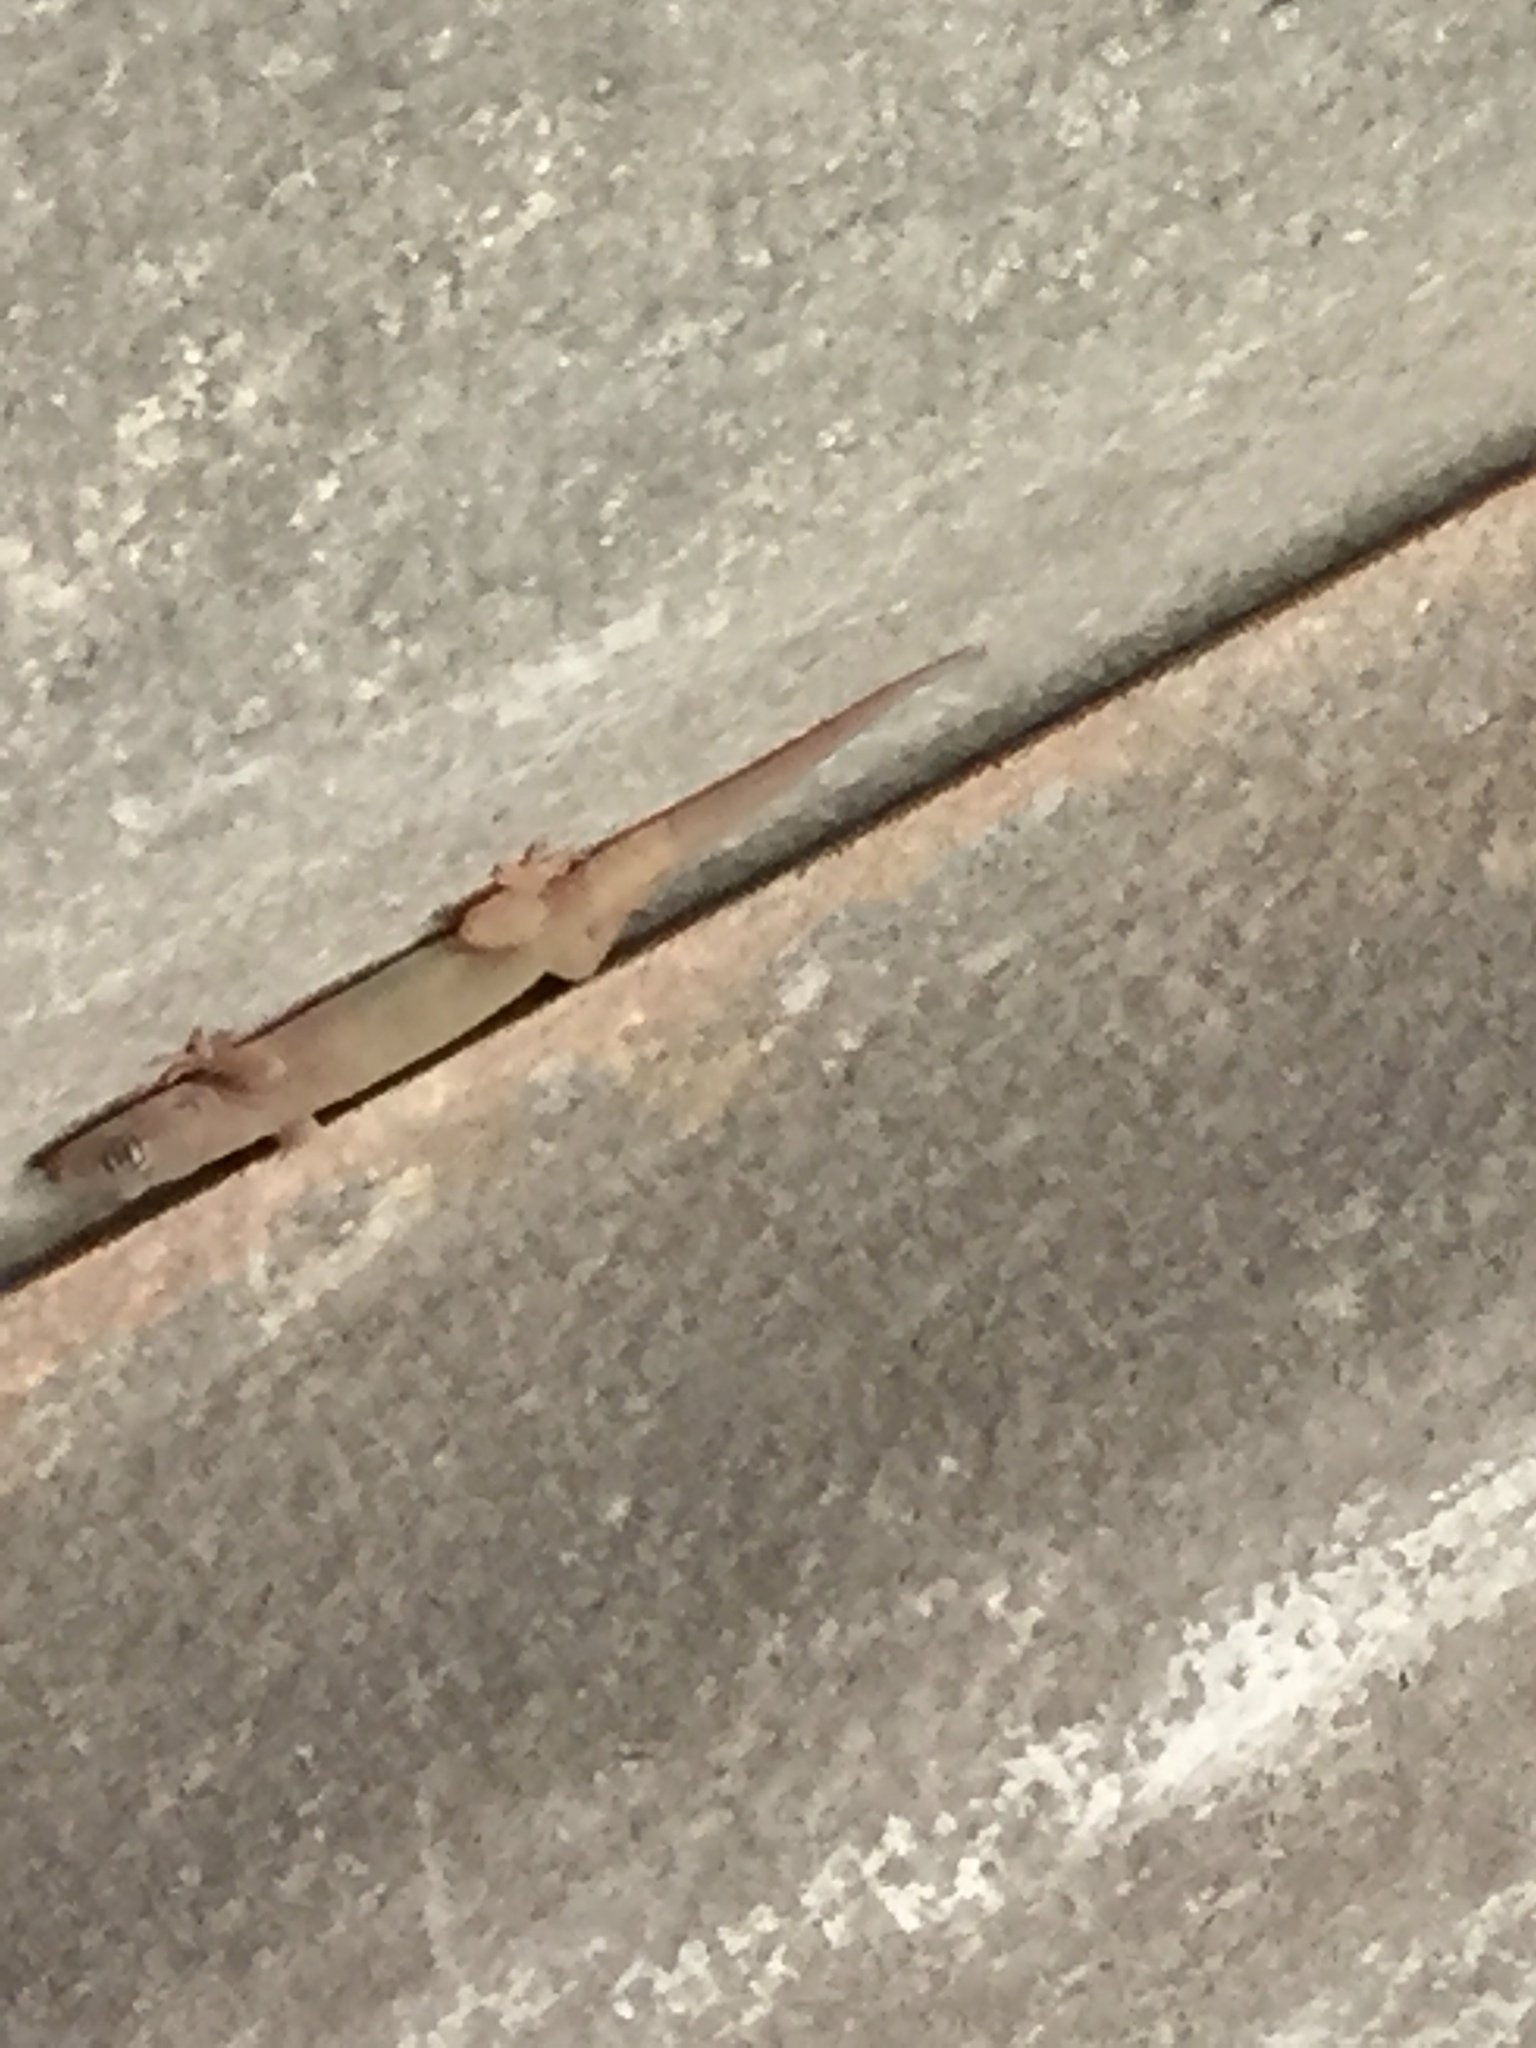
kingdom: Animalia
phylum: Chordata
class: Squamata
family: Gekkonidae
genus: Gehyra
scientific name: Gehyra mutilata
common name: Stump-toed gecko
